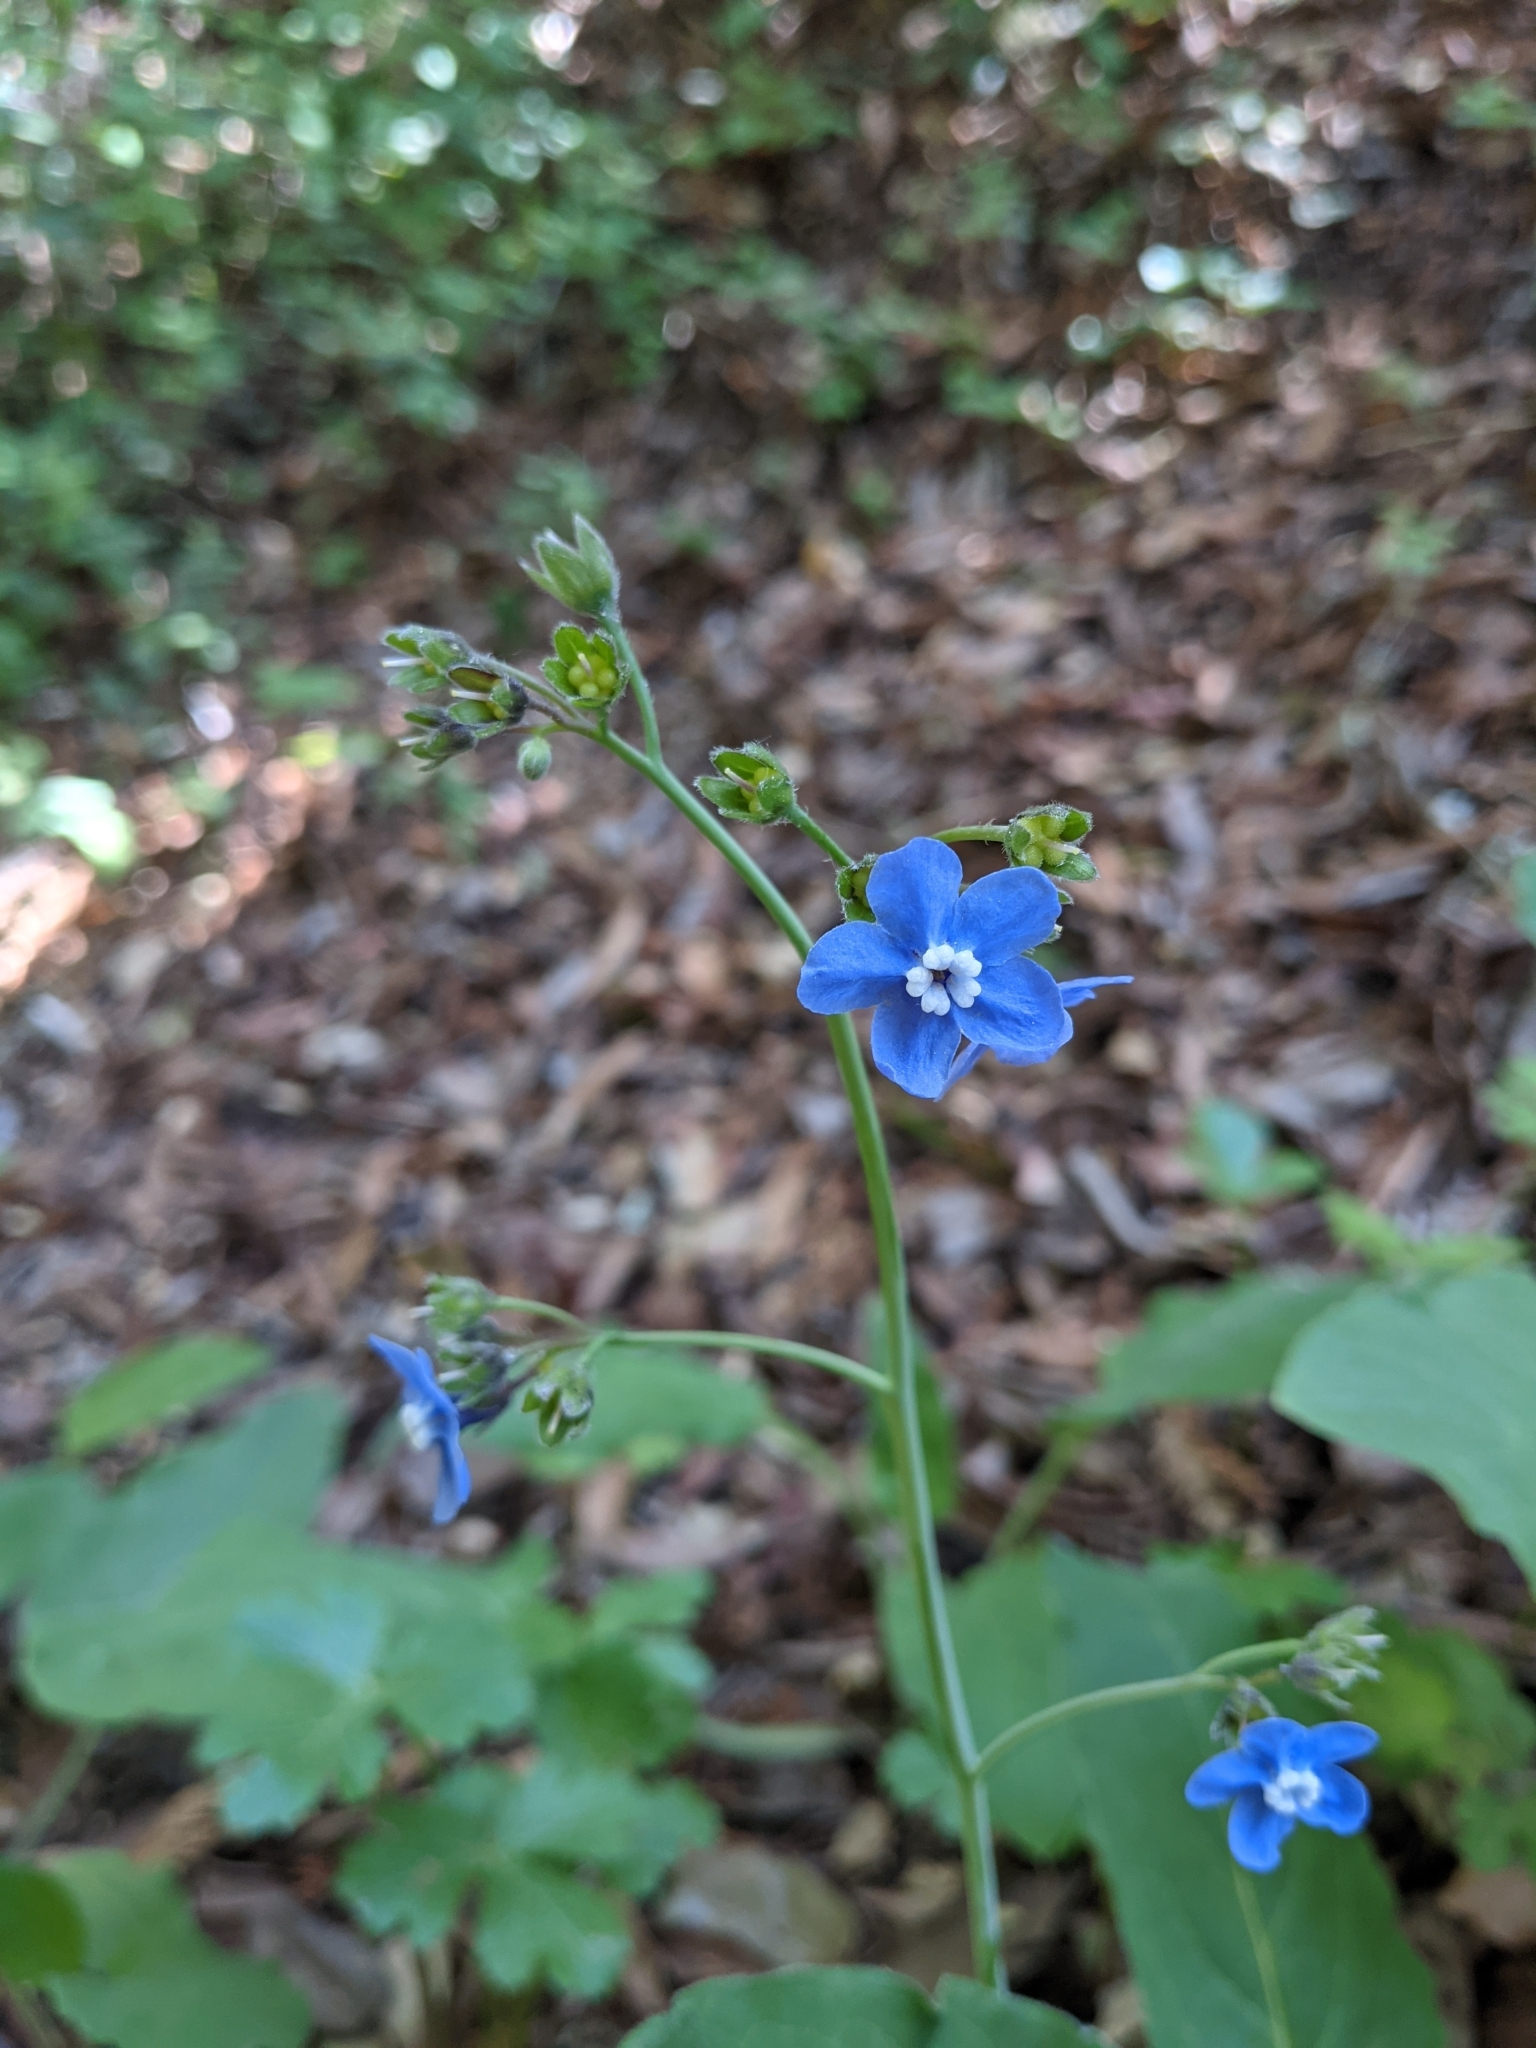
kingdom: Plantae
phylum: Tracheophyta
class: Magnoliopsida
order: Boraginales
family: Boraginaceae
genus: Adelinia
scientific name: Adelinia grande
